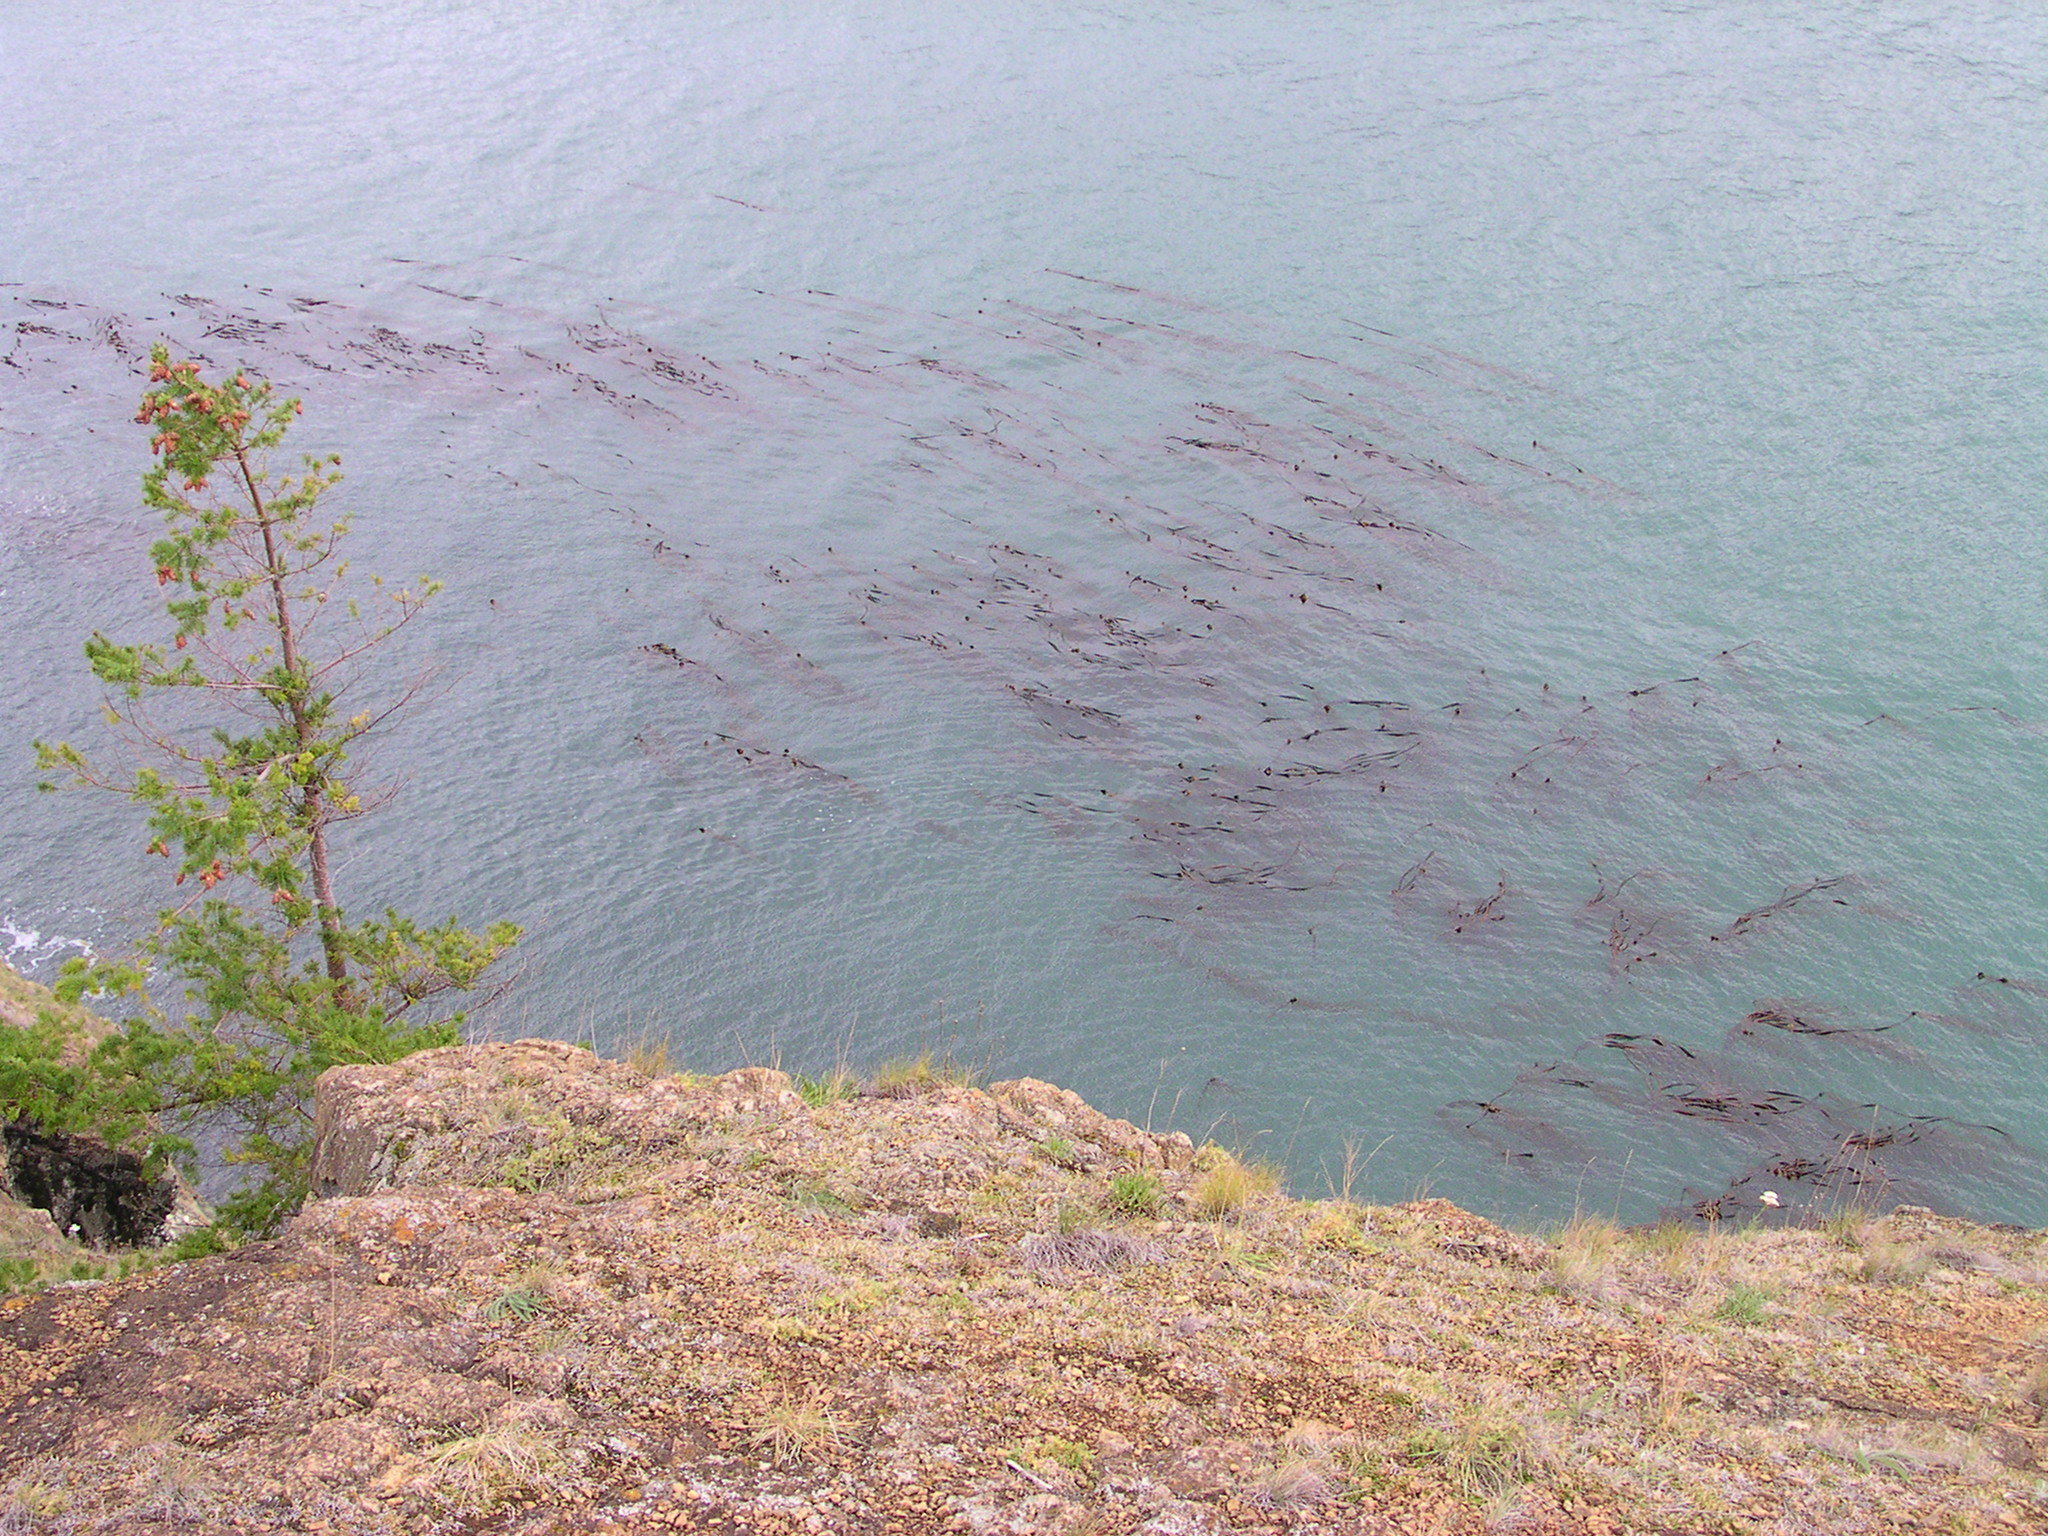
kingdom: Chromista
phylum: Ochrophyta
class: Phaeophyceae
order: Laminariales
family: Laminariaceae
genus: Nereocystis
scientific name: Nereocystis luetkeana
